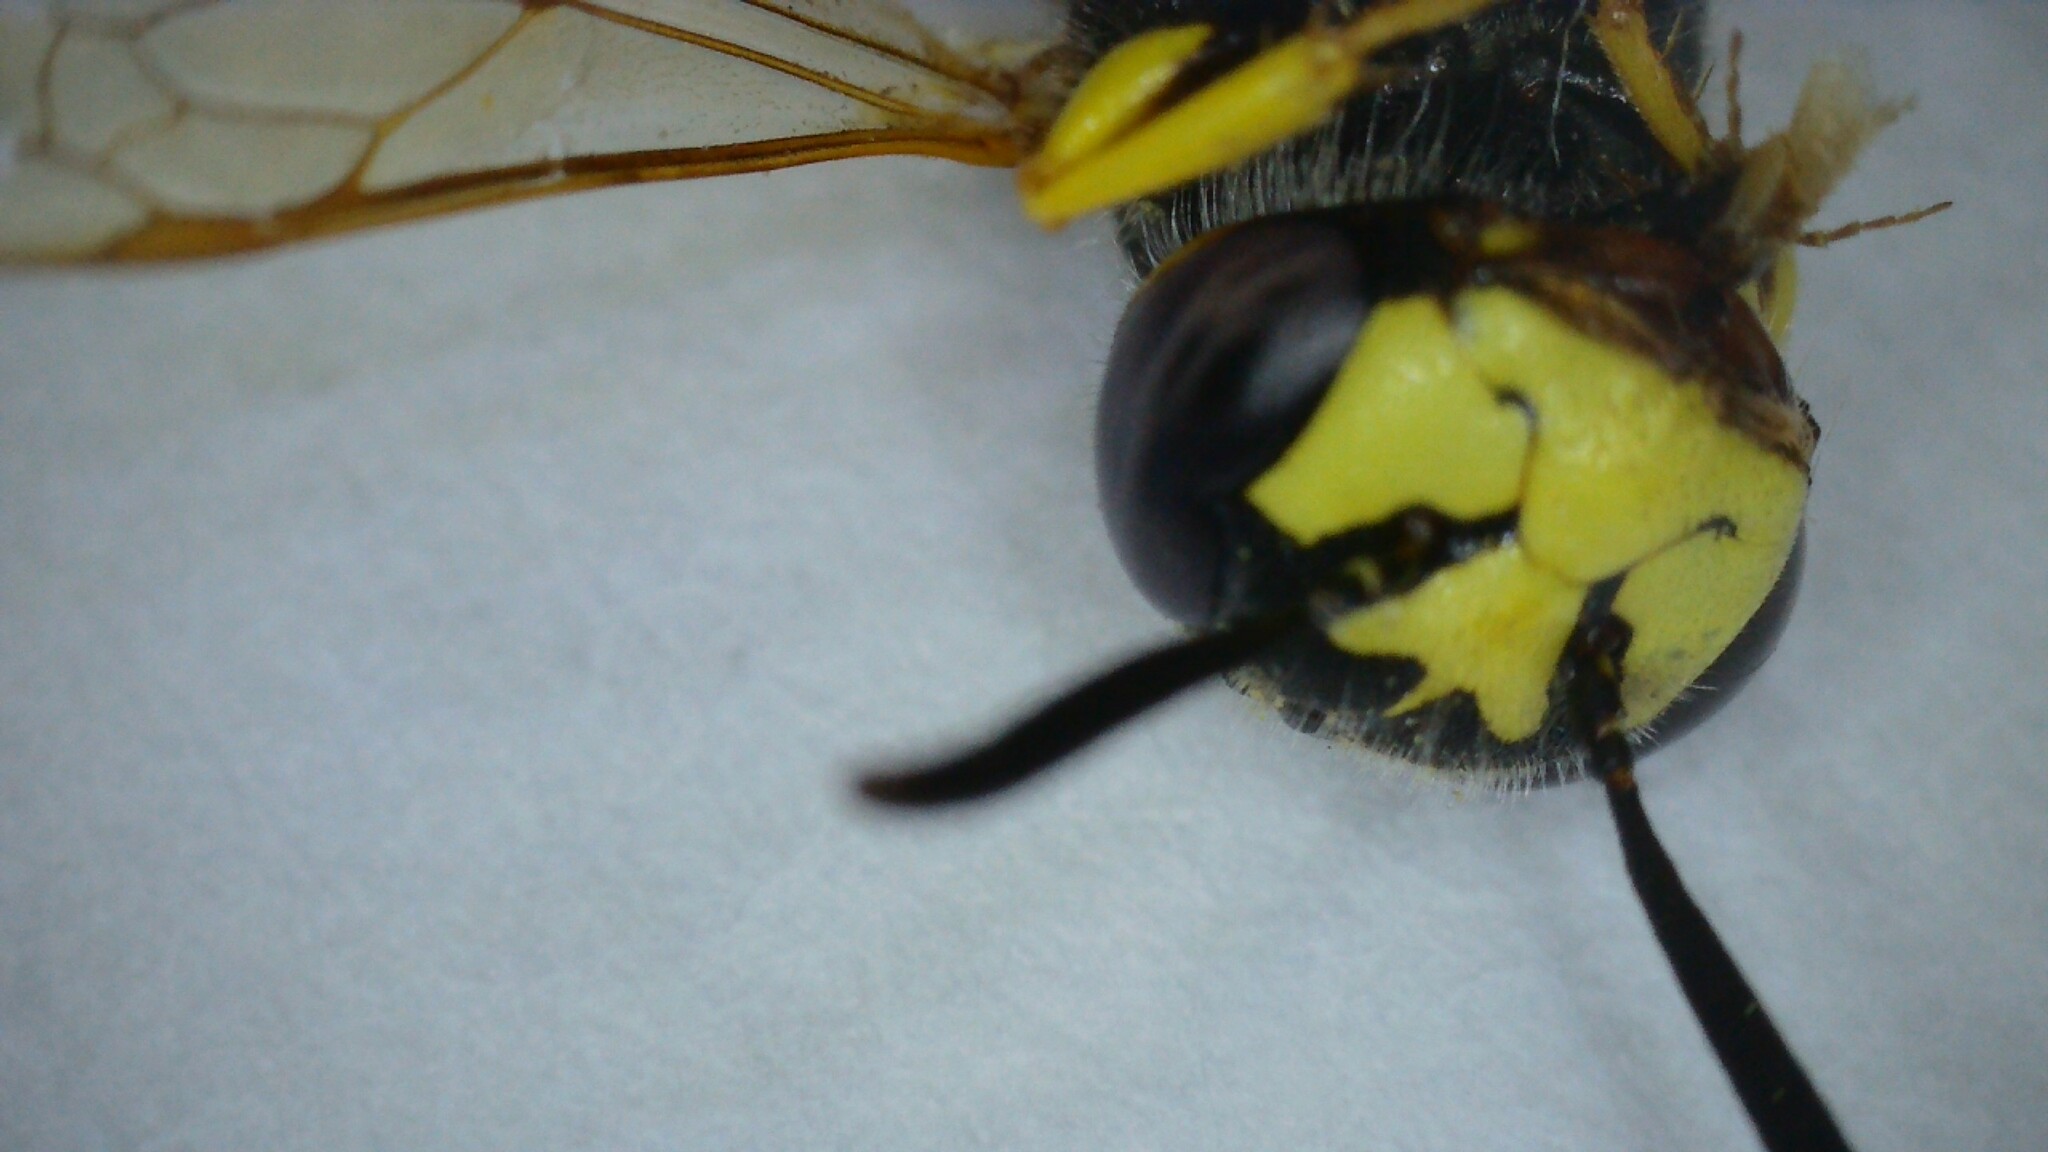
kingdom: Animalia
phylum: Arthropoda
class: Insecta
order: Hymenoptera
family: Crabronidae
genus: Philanthus
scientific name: Philanthus triangulum
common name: Bee wolf
